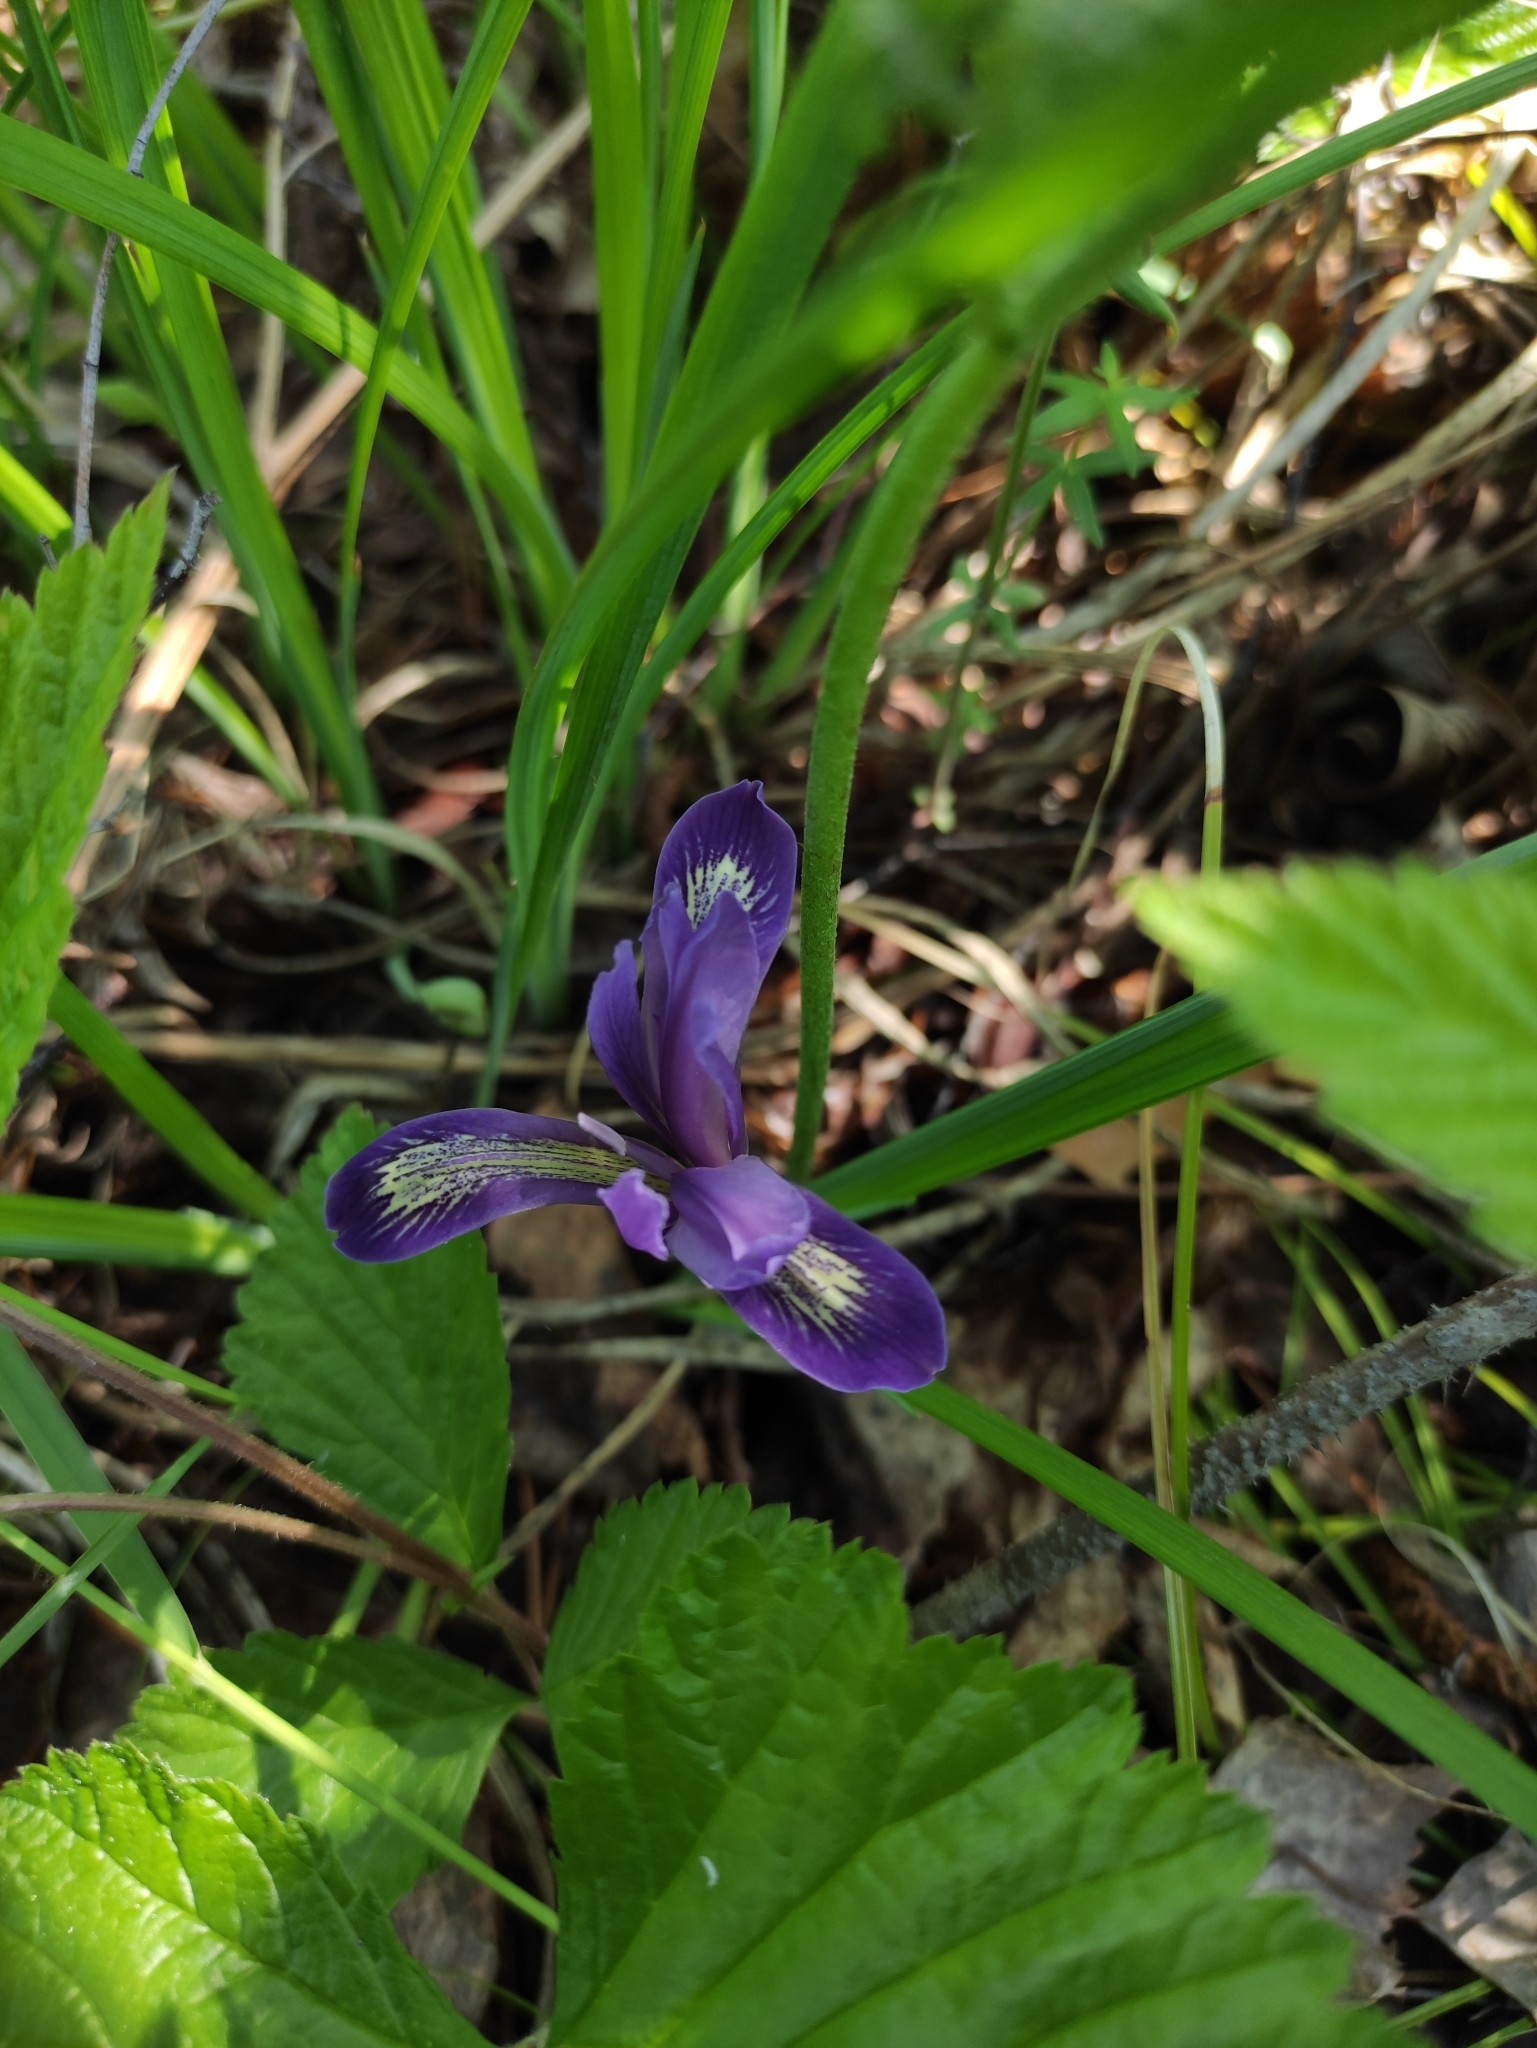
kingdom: Plantae
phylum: Tracheophyta
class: Liliopsida
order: Asparagales
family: Iridaceae
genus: Iris
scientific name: Iris ruthenica
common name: Purple-bract iris
